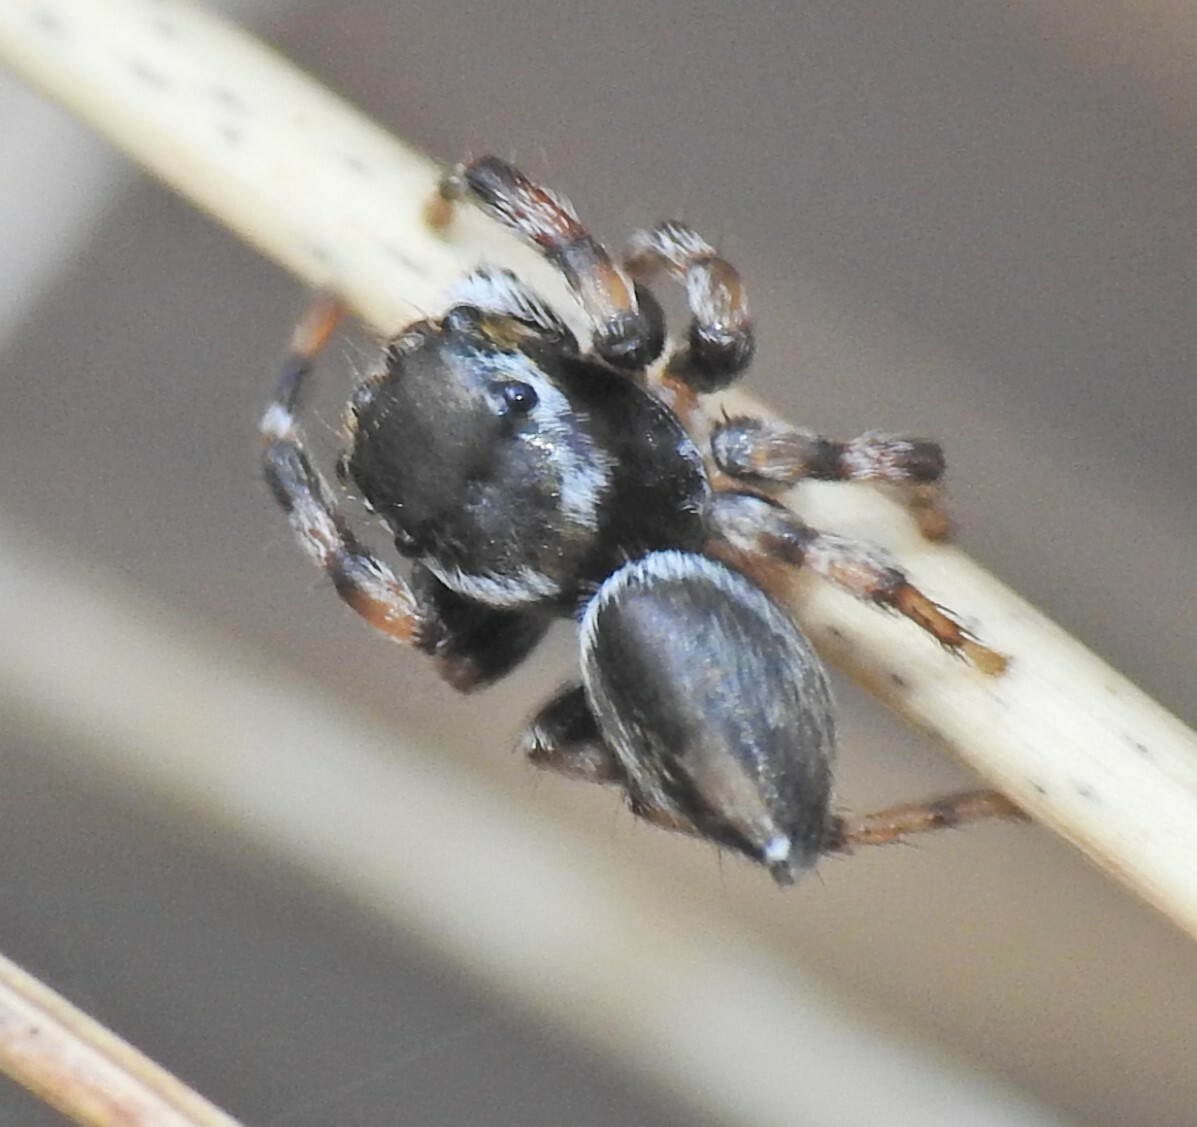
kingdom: Animalia
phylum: Arthropoda
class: Arachnida
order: Araneae
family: Salticidae
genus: Maratus
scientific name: Maratus scutulatus
